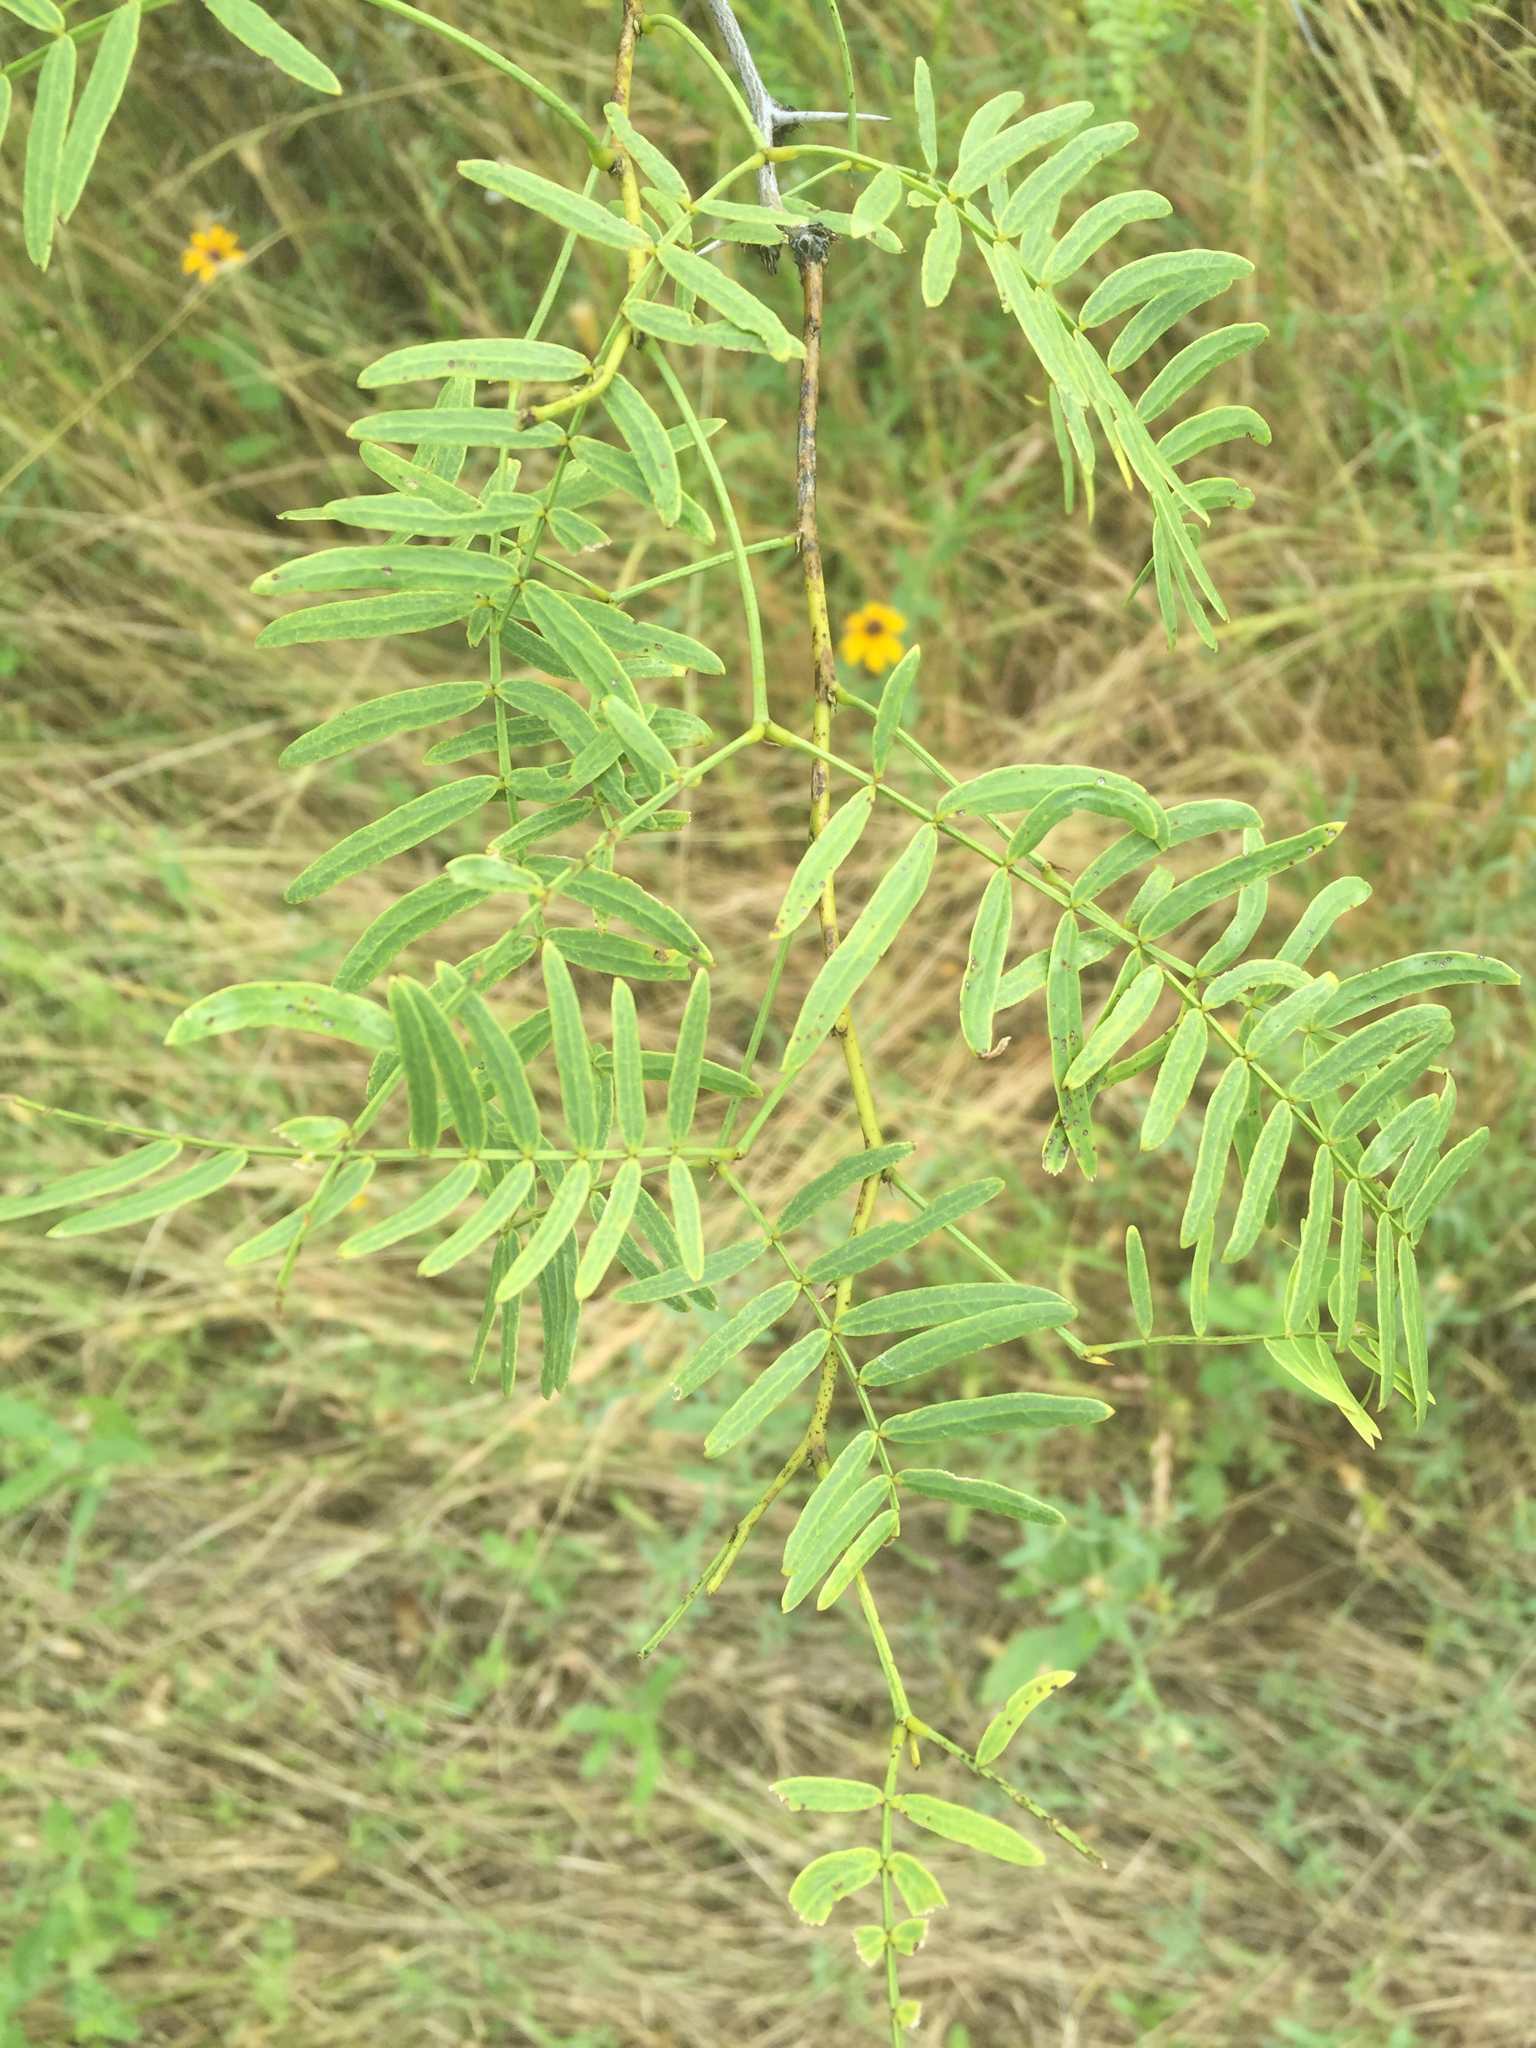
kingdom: Plantae
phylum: Tracheophyta
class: Magnoliopsida
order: Fabales
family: Fabaceae
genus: Prosopis
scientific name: Prosopis glandulosa
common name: Honey mesquite
